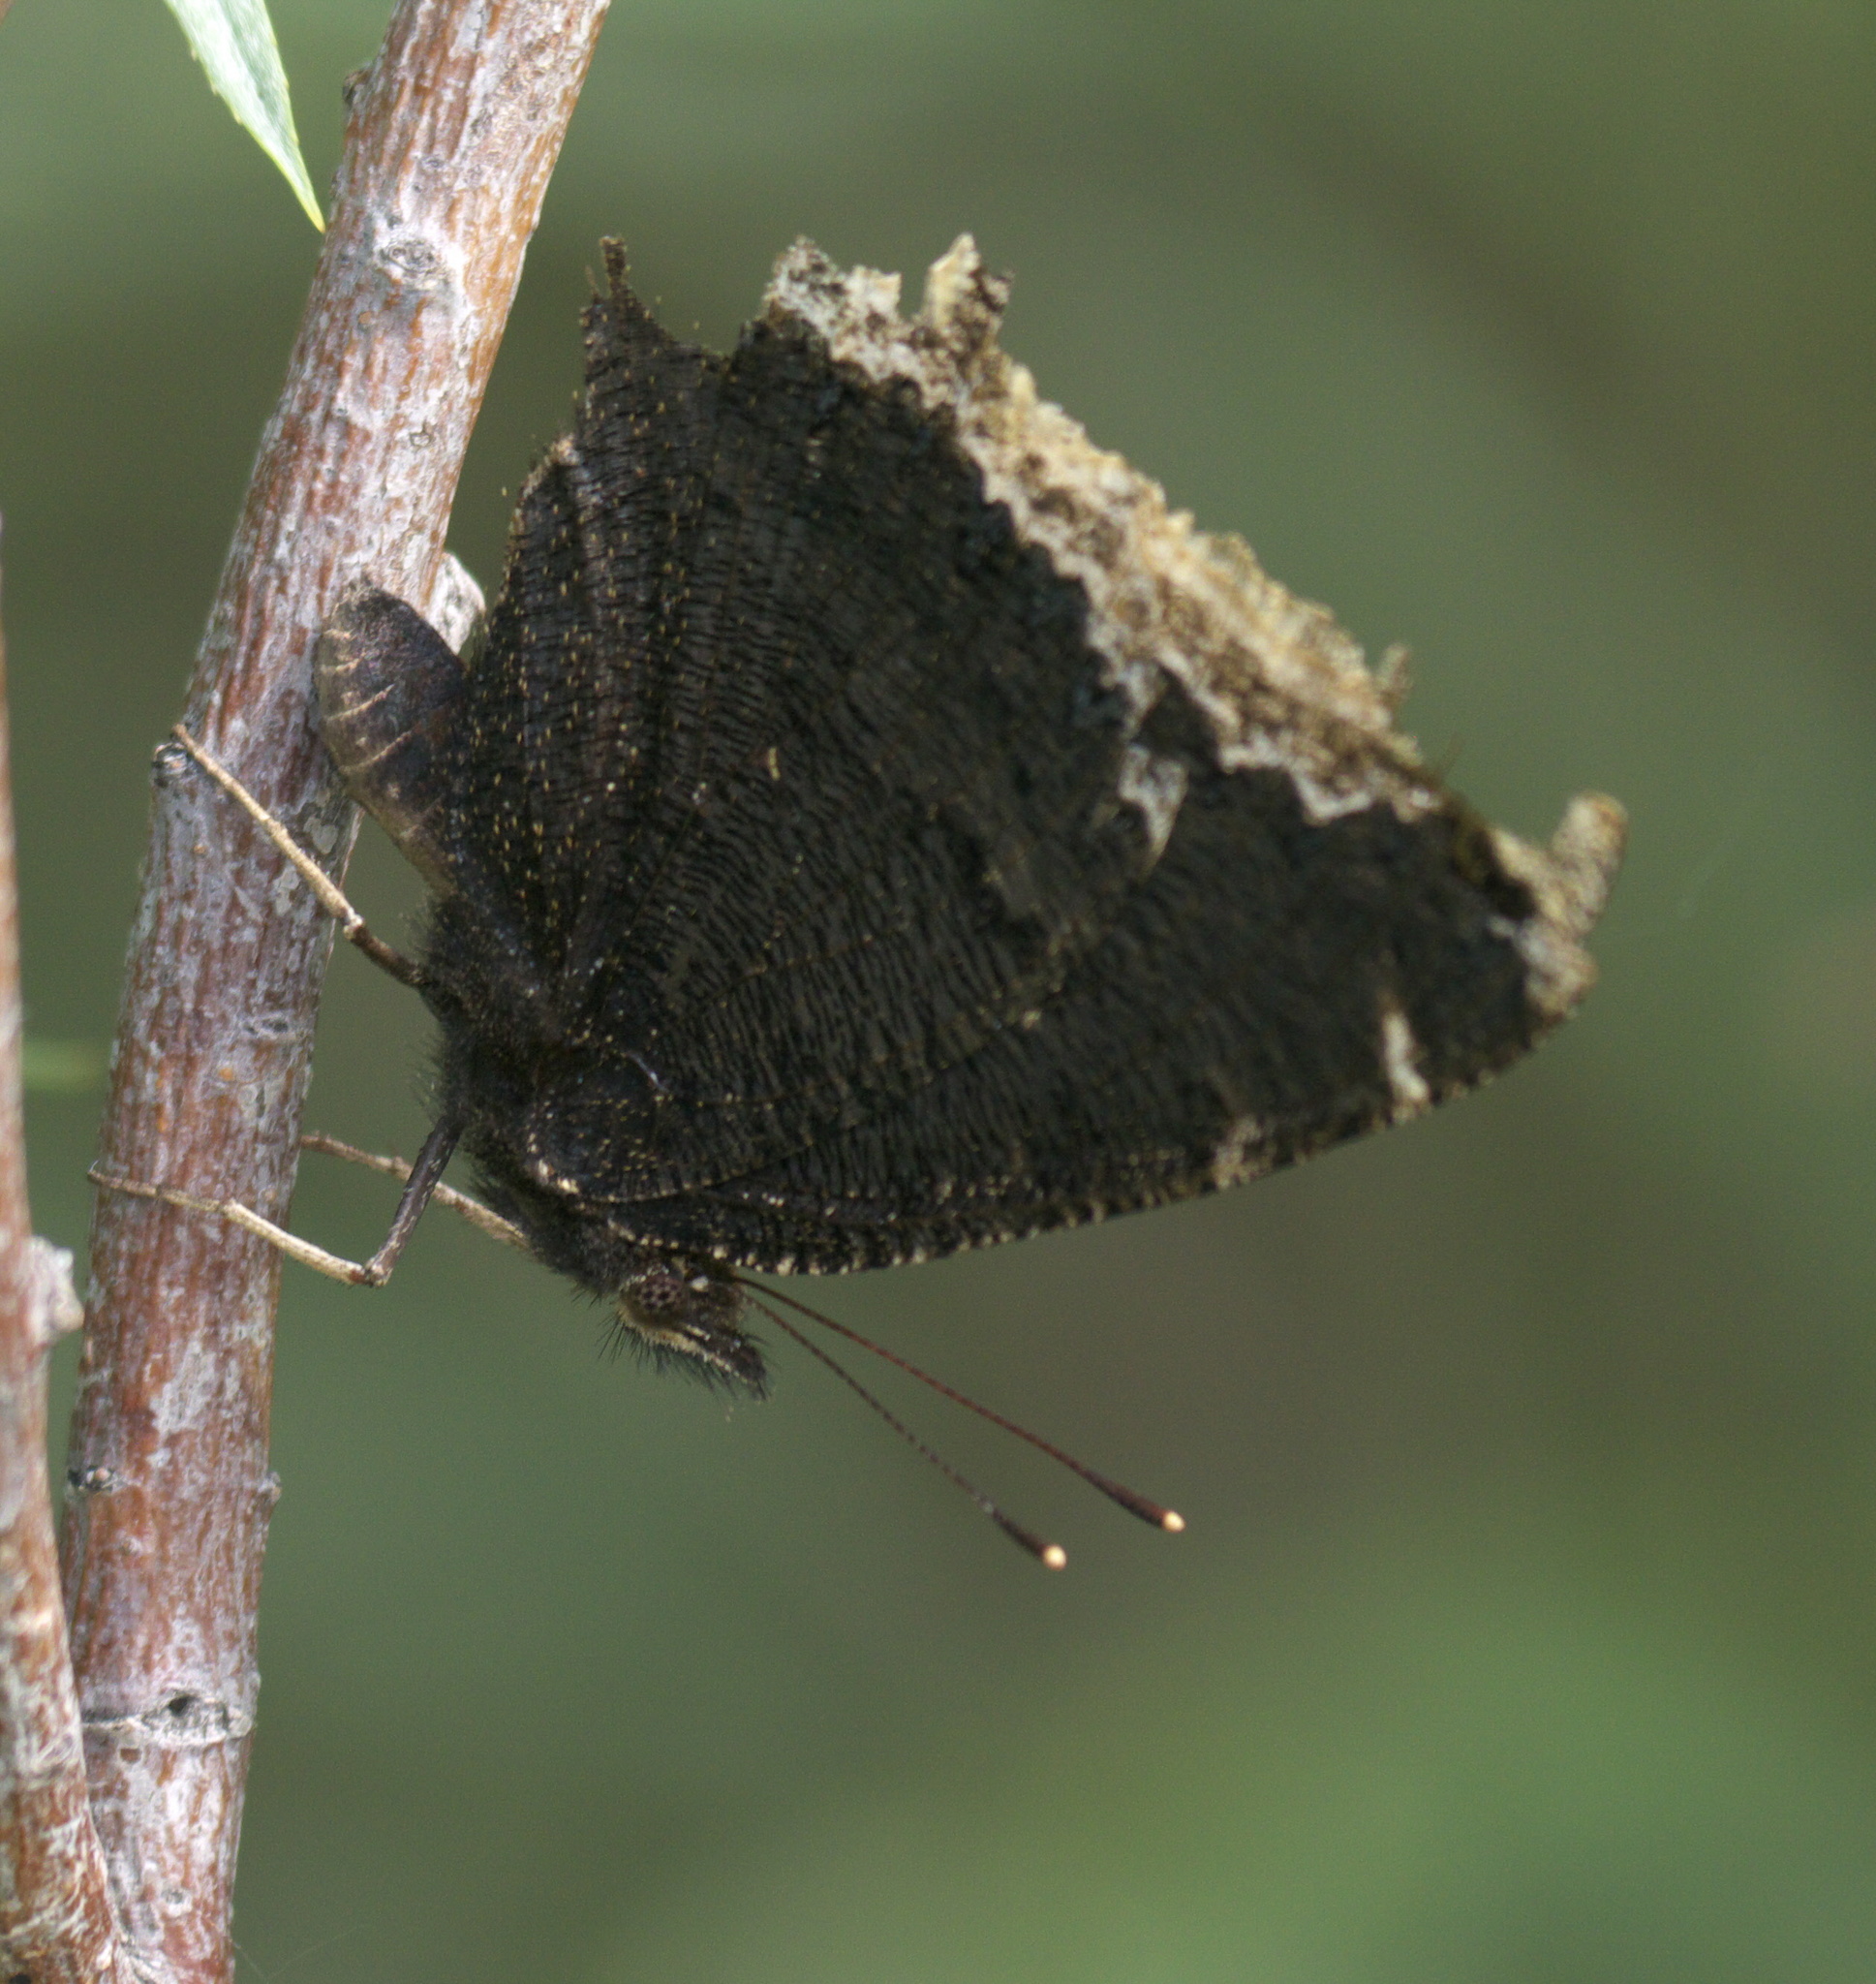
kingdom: Animalia
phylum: Arthropoda
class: Insecta
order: Lepidoptera
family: Nymphalidae
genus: Nymphalis
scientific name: Nymphalis antiopa
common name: Camberwell beauty
